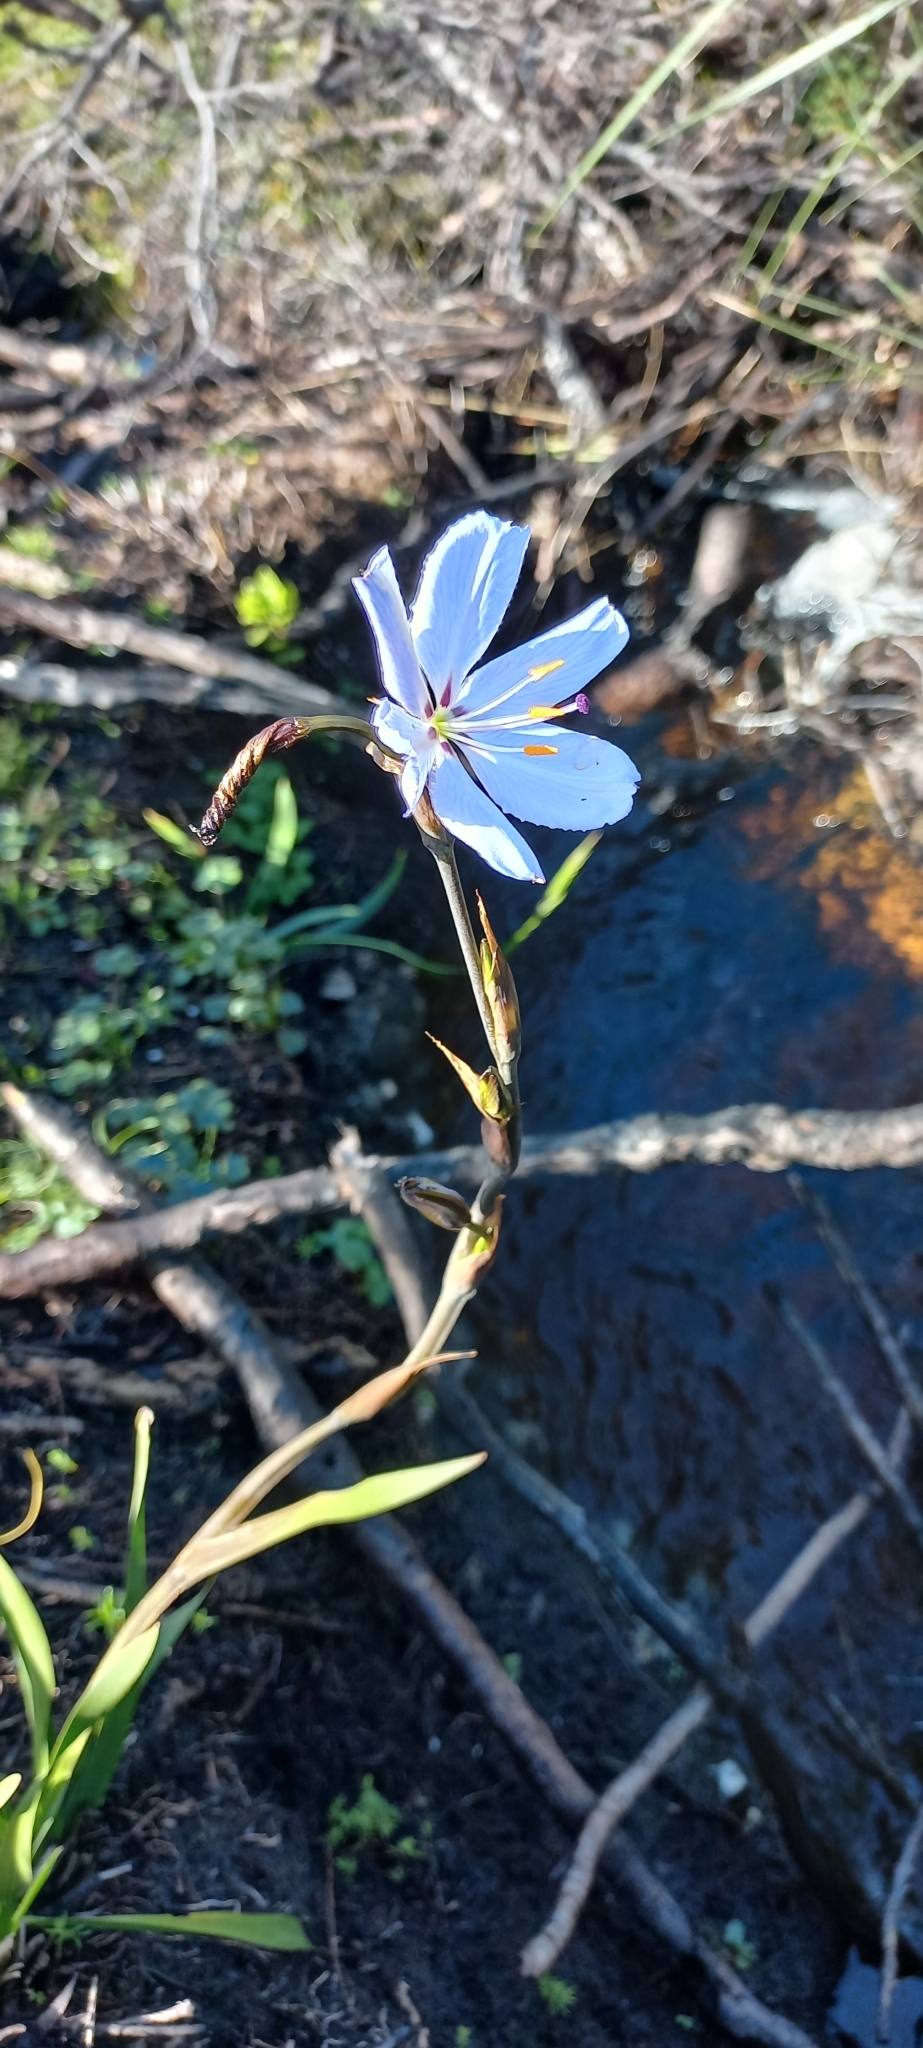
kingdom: Plantae
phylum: Tracheophyta
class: Liliopsida
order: Asparagales
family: Iridaceae
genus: Aristea
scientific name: Aristea spiralis
